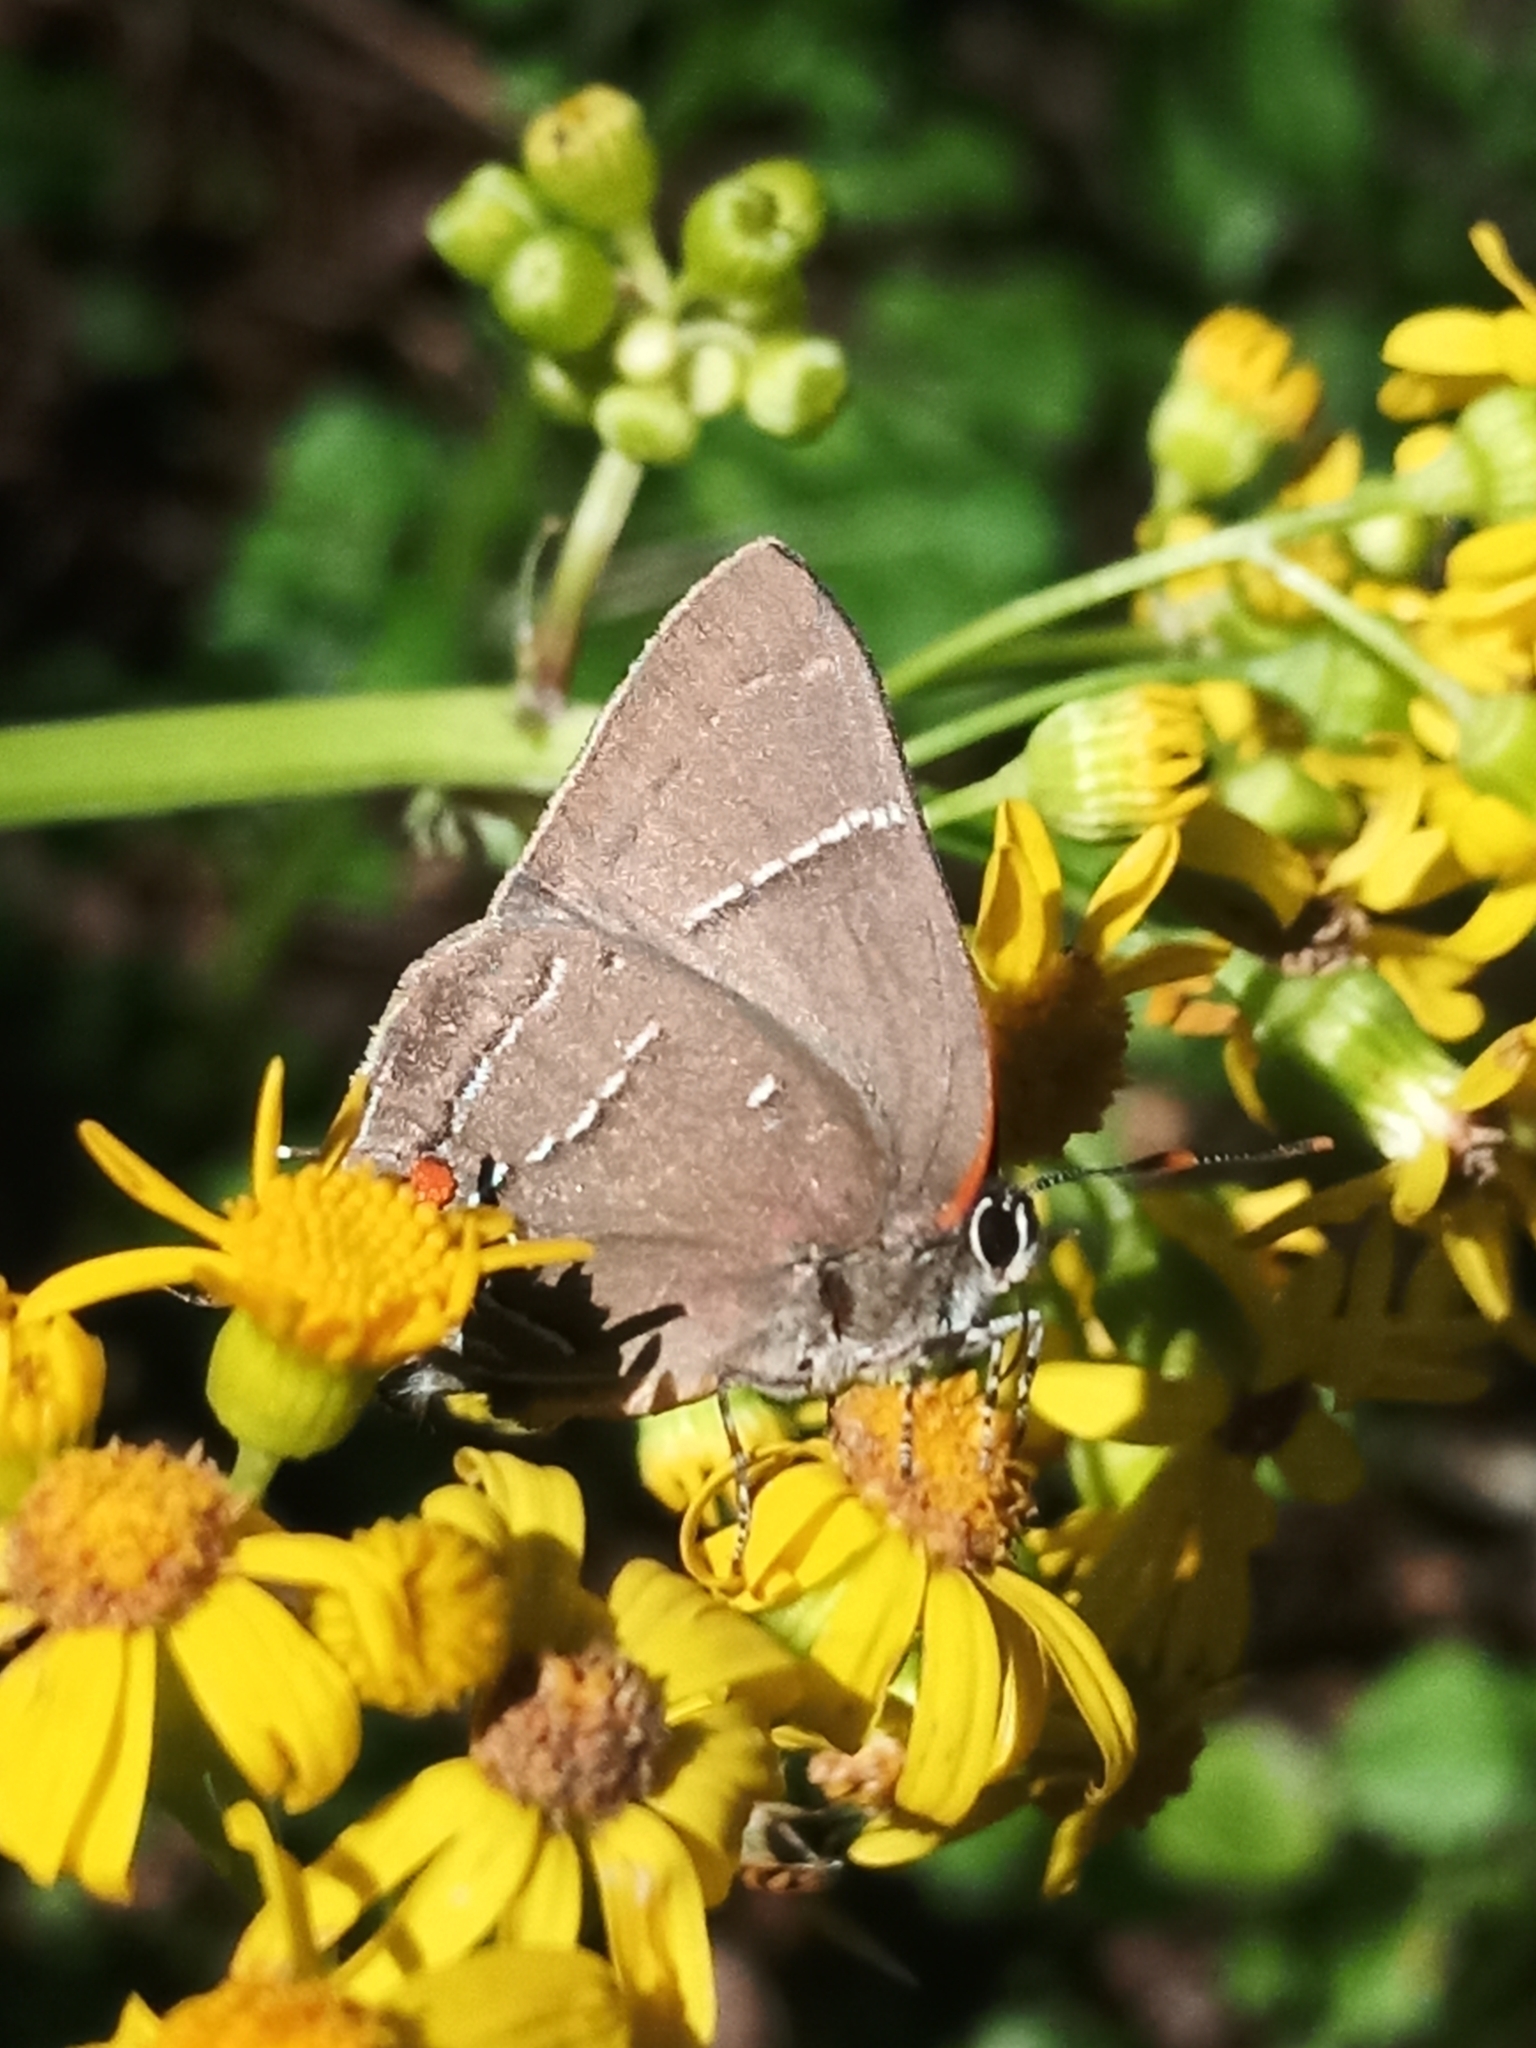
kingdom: Animalia
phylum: Arthropoda
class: Insecta
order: Lepidoptera
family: Lycaenidae
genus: Parrhasius
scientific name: Parrhasius m-album
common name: White m hairstreak
